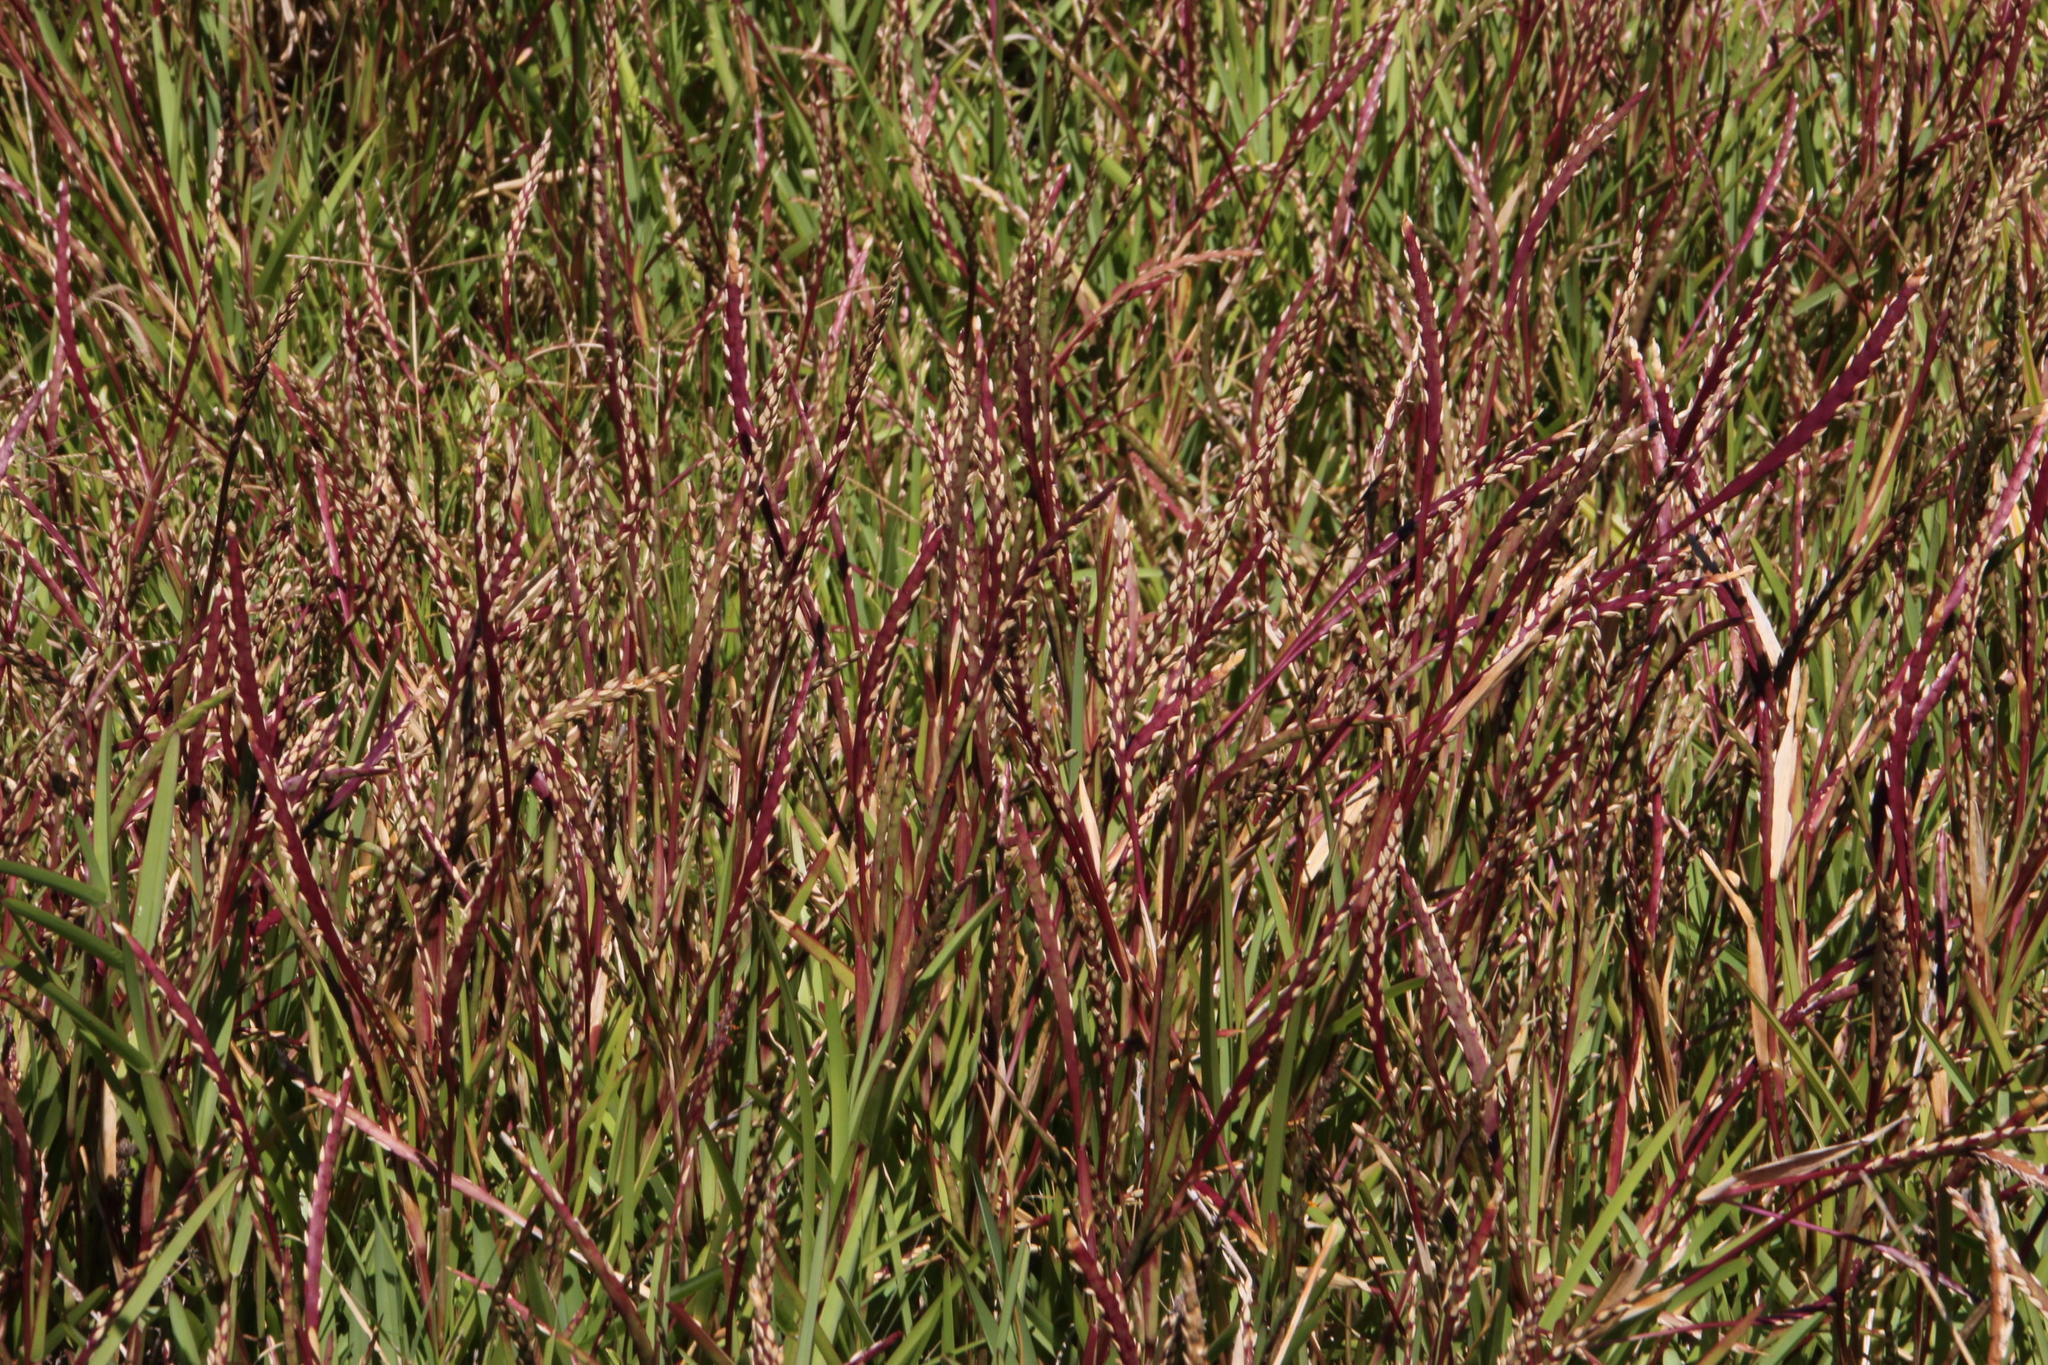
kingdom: Plantae
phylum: Tracheophyta
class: Liliopsida
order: Poales
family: Poaceae
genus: Stenotaphrum
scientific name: Stenotaphrum secundatum
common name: St. augustine grass
